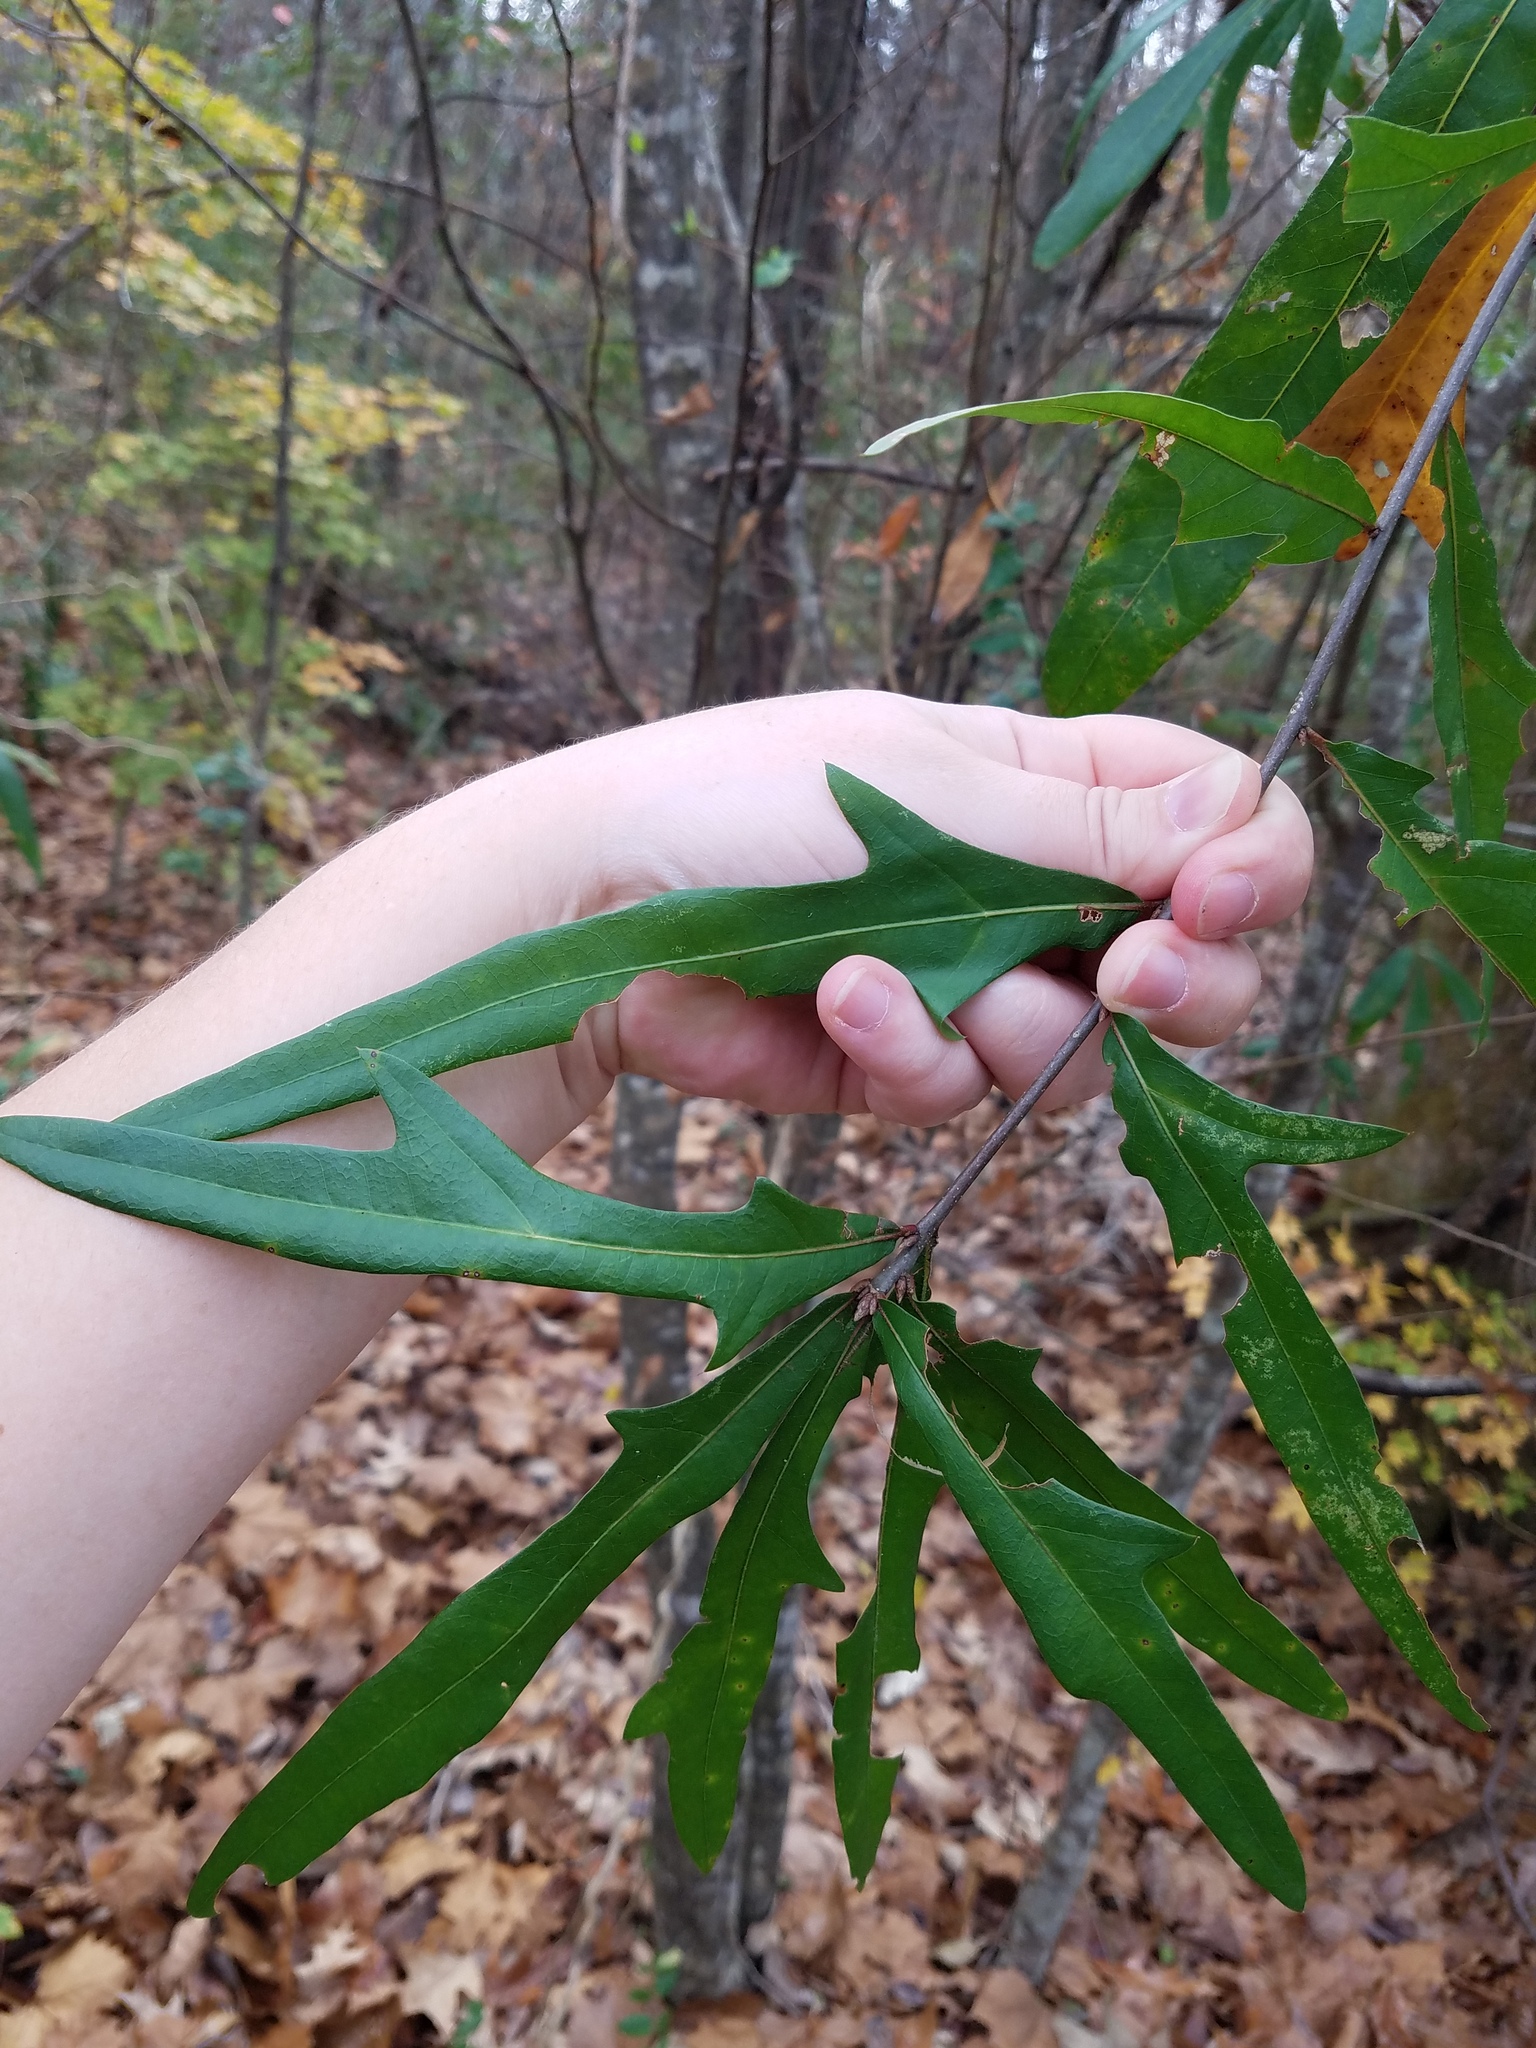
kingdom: Plantae
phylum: Tracheophyta
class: Magnoliopsida
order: Fagales
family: Fagaceae
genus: Quercus
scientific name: Quercus phellos
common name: Willow oak
